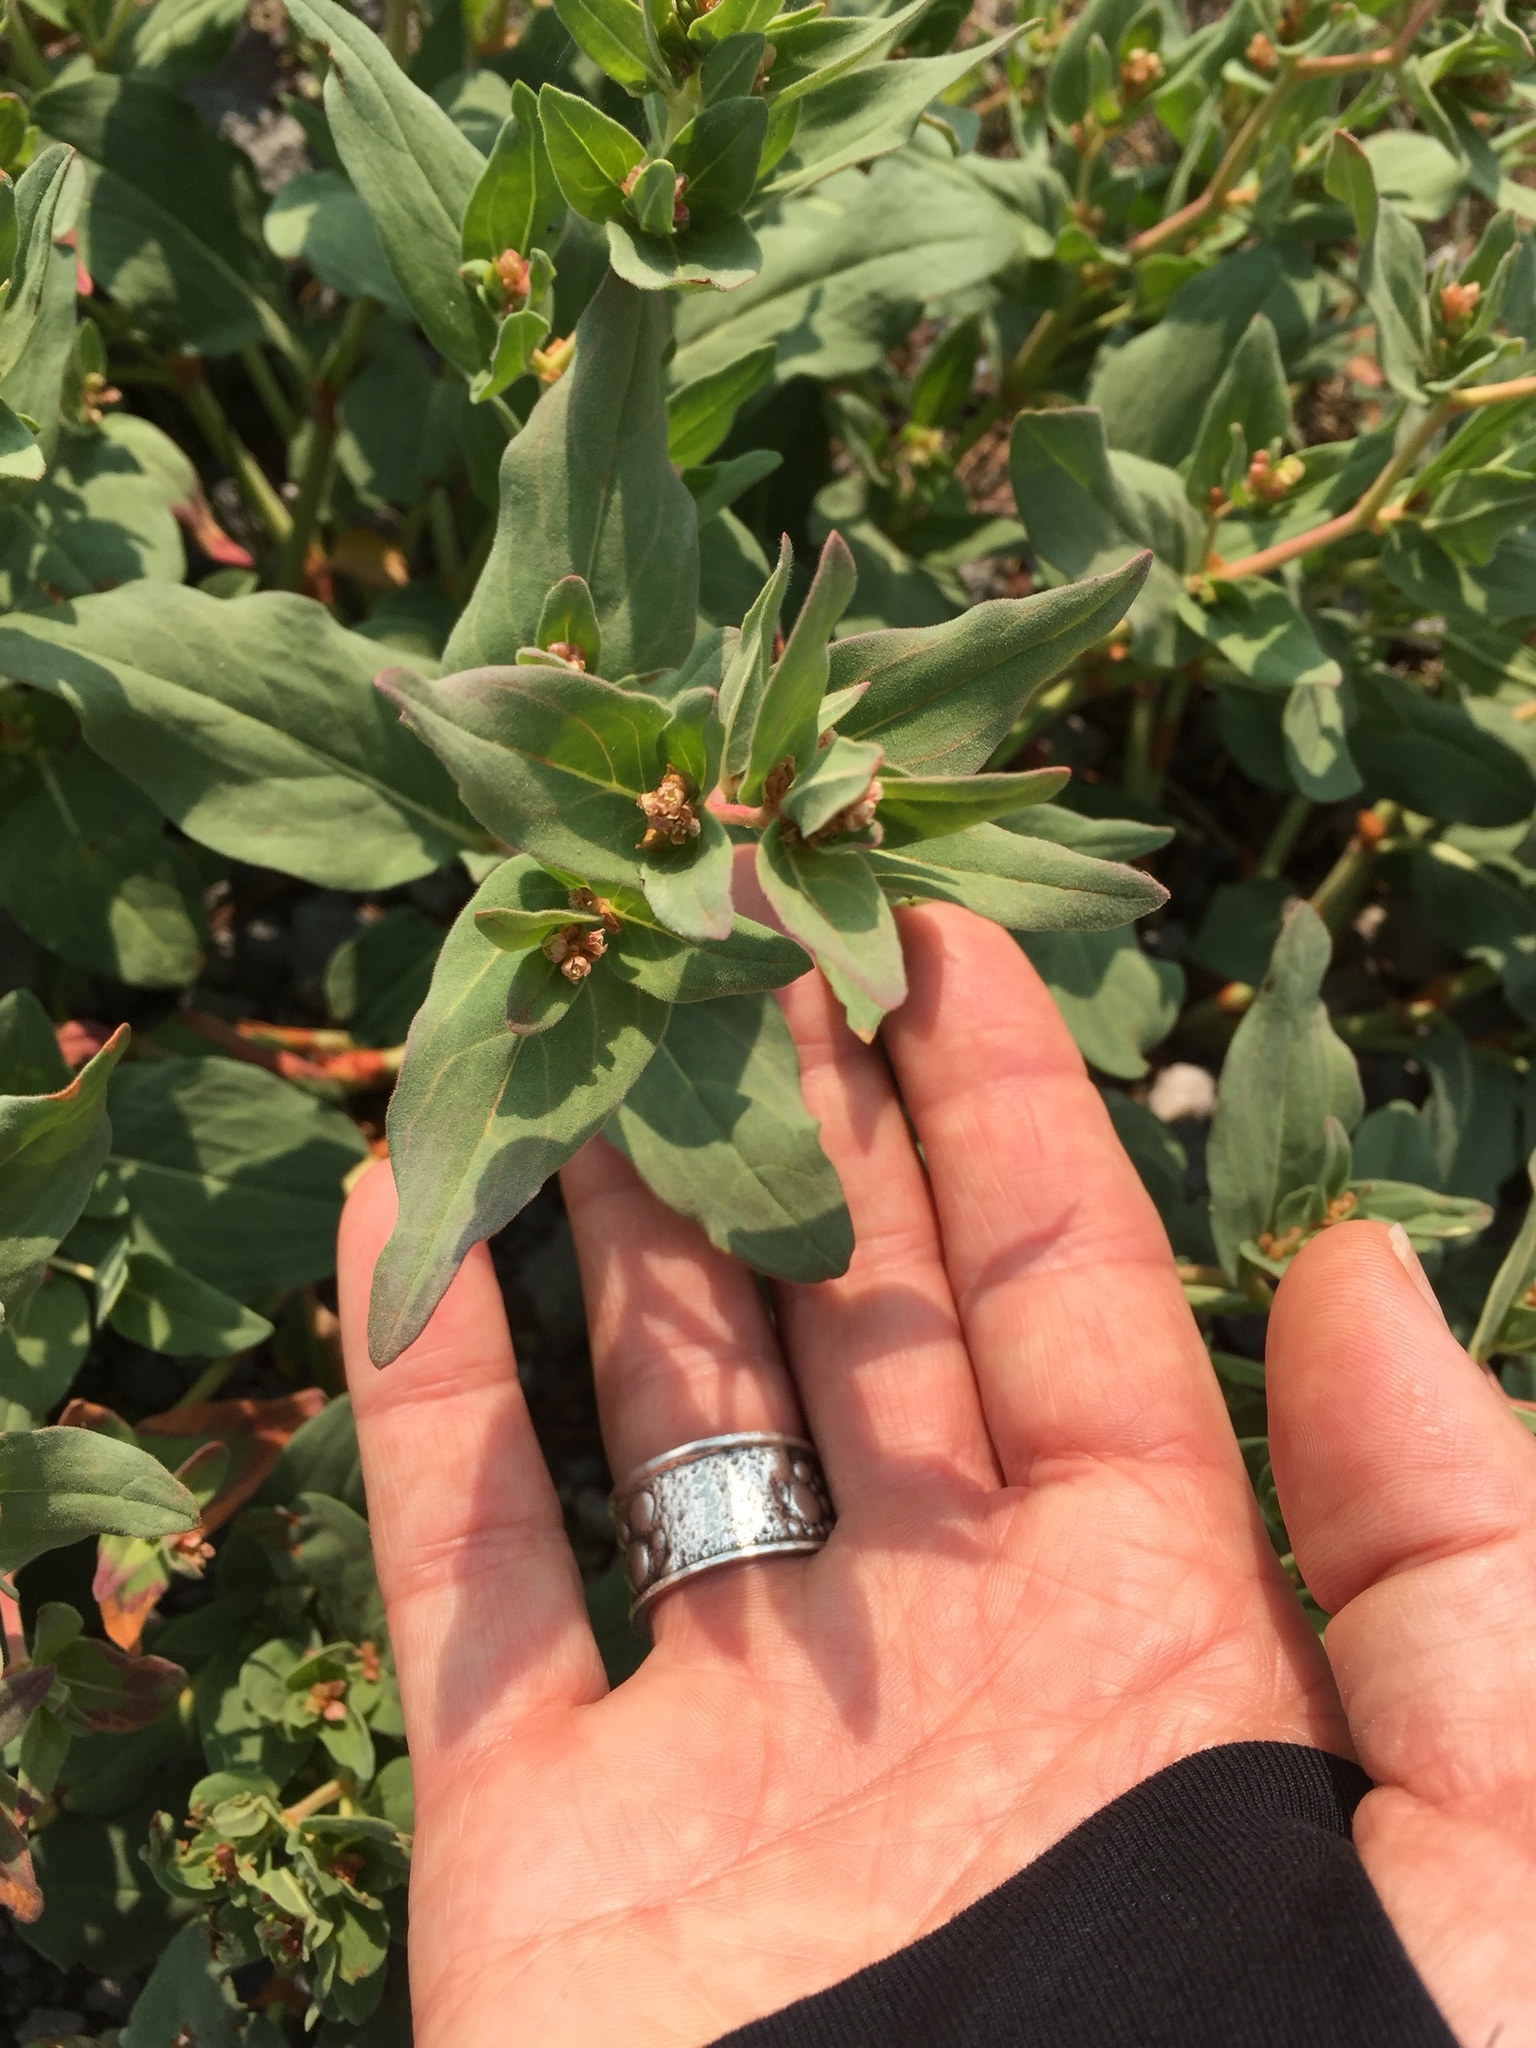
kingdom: Plantae
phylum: Tracheophyta
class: Magnoliopsida
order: Caryophyllales
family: Polygonaceae
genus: Koenigia
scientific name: Koenigia davisiae
